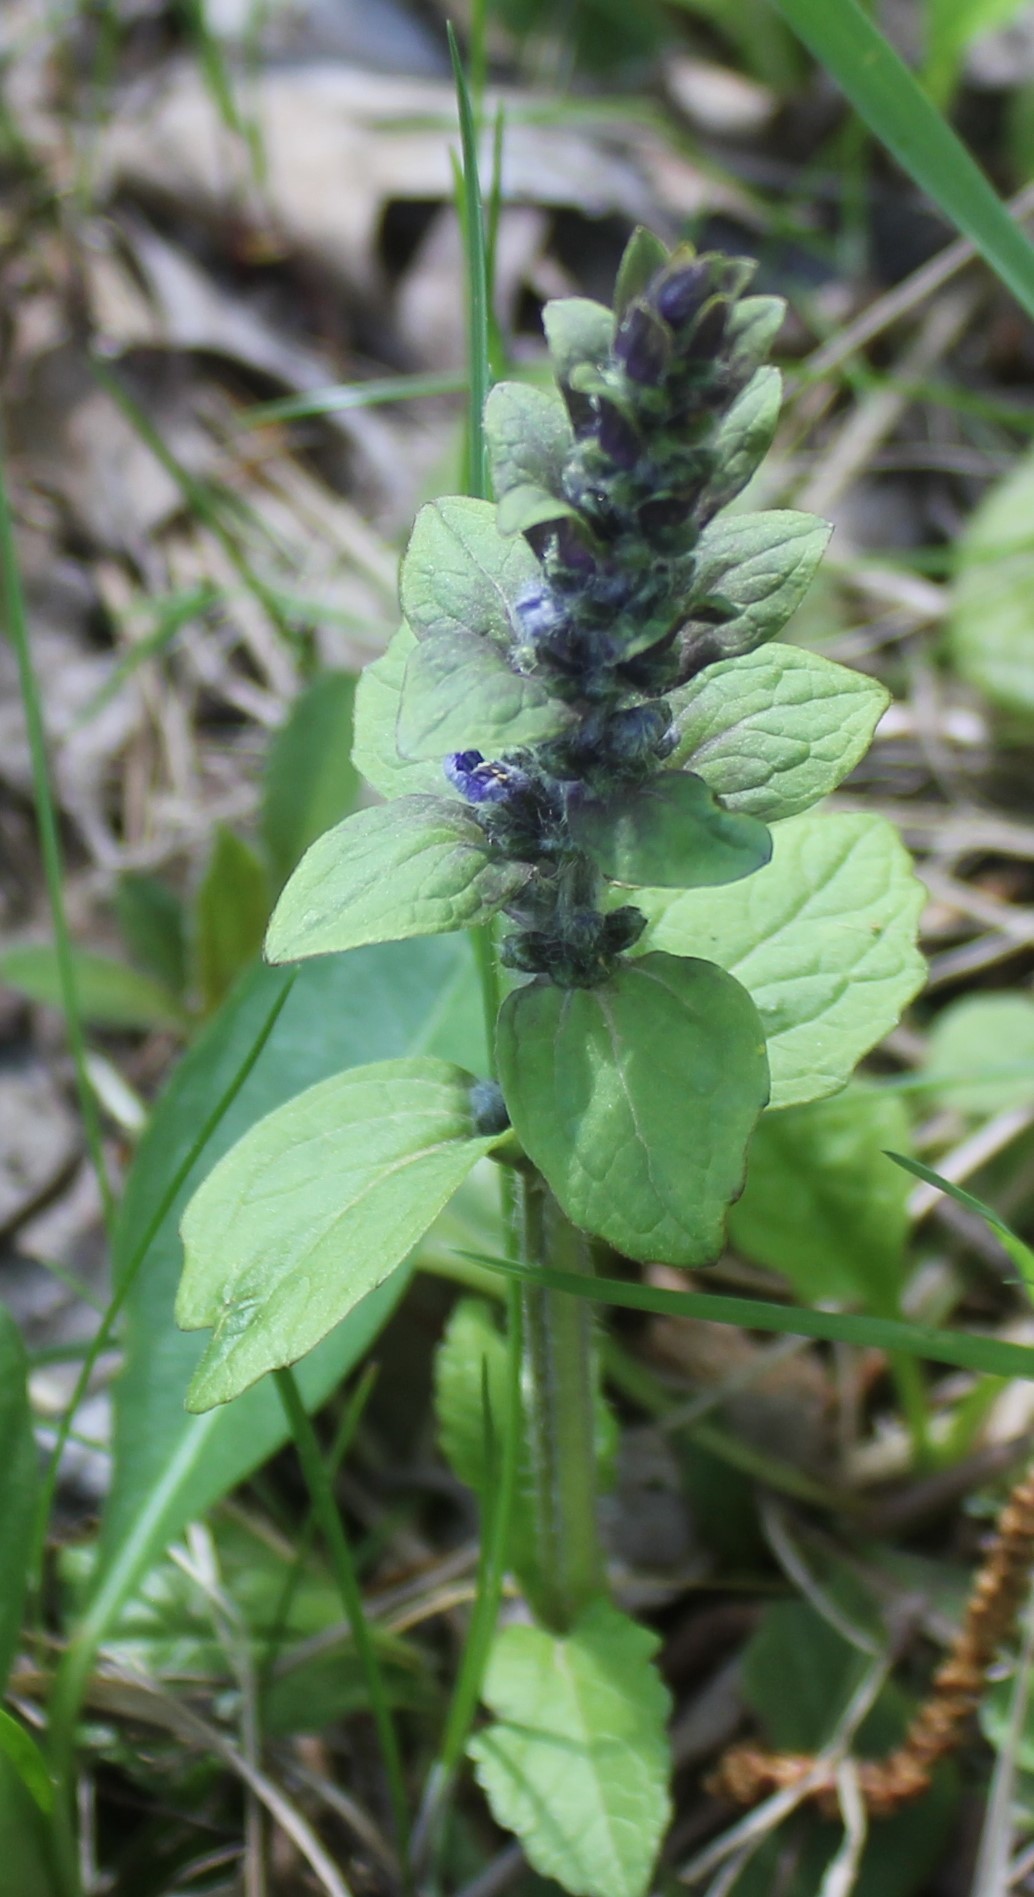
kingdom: Plantae
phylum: Tracheophyta
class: Magnoliopsida
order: Lamiales
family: Lamiaceae
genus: Ajuga
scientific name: Ajuga reptans
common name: Bugle
